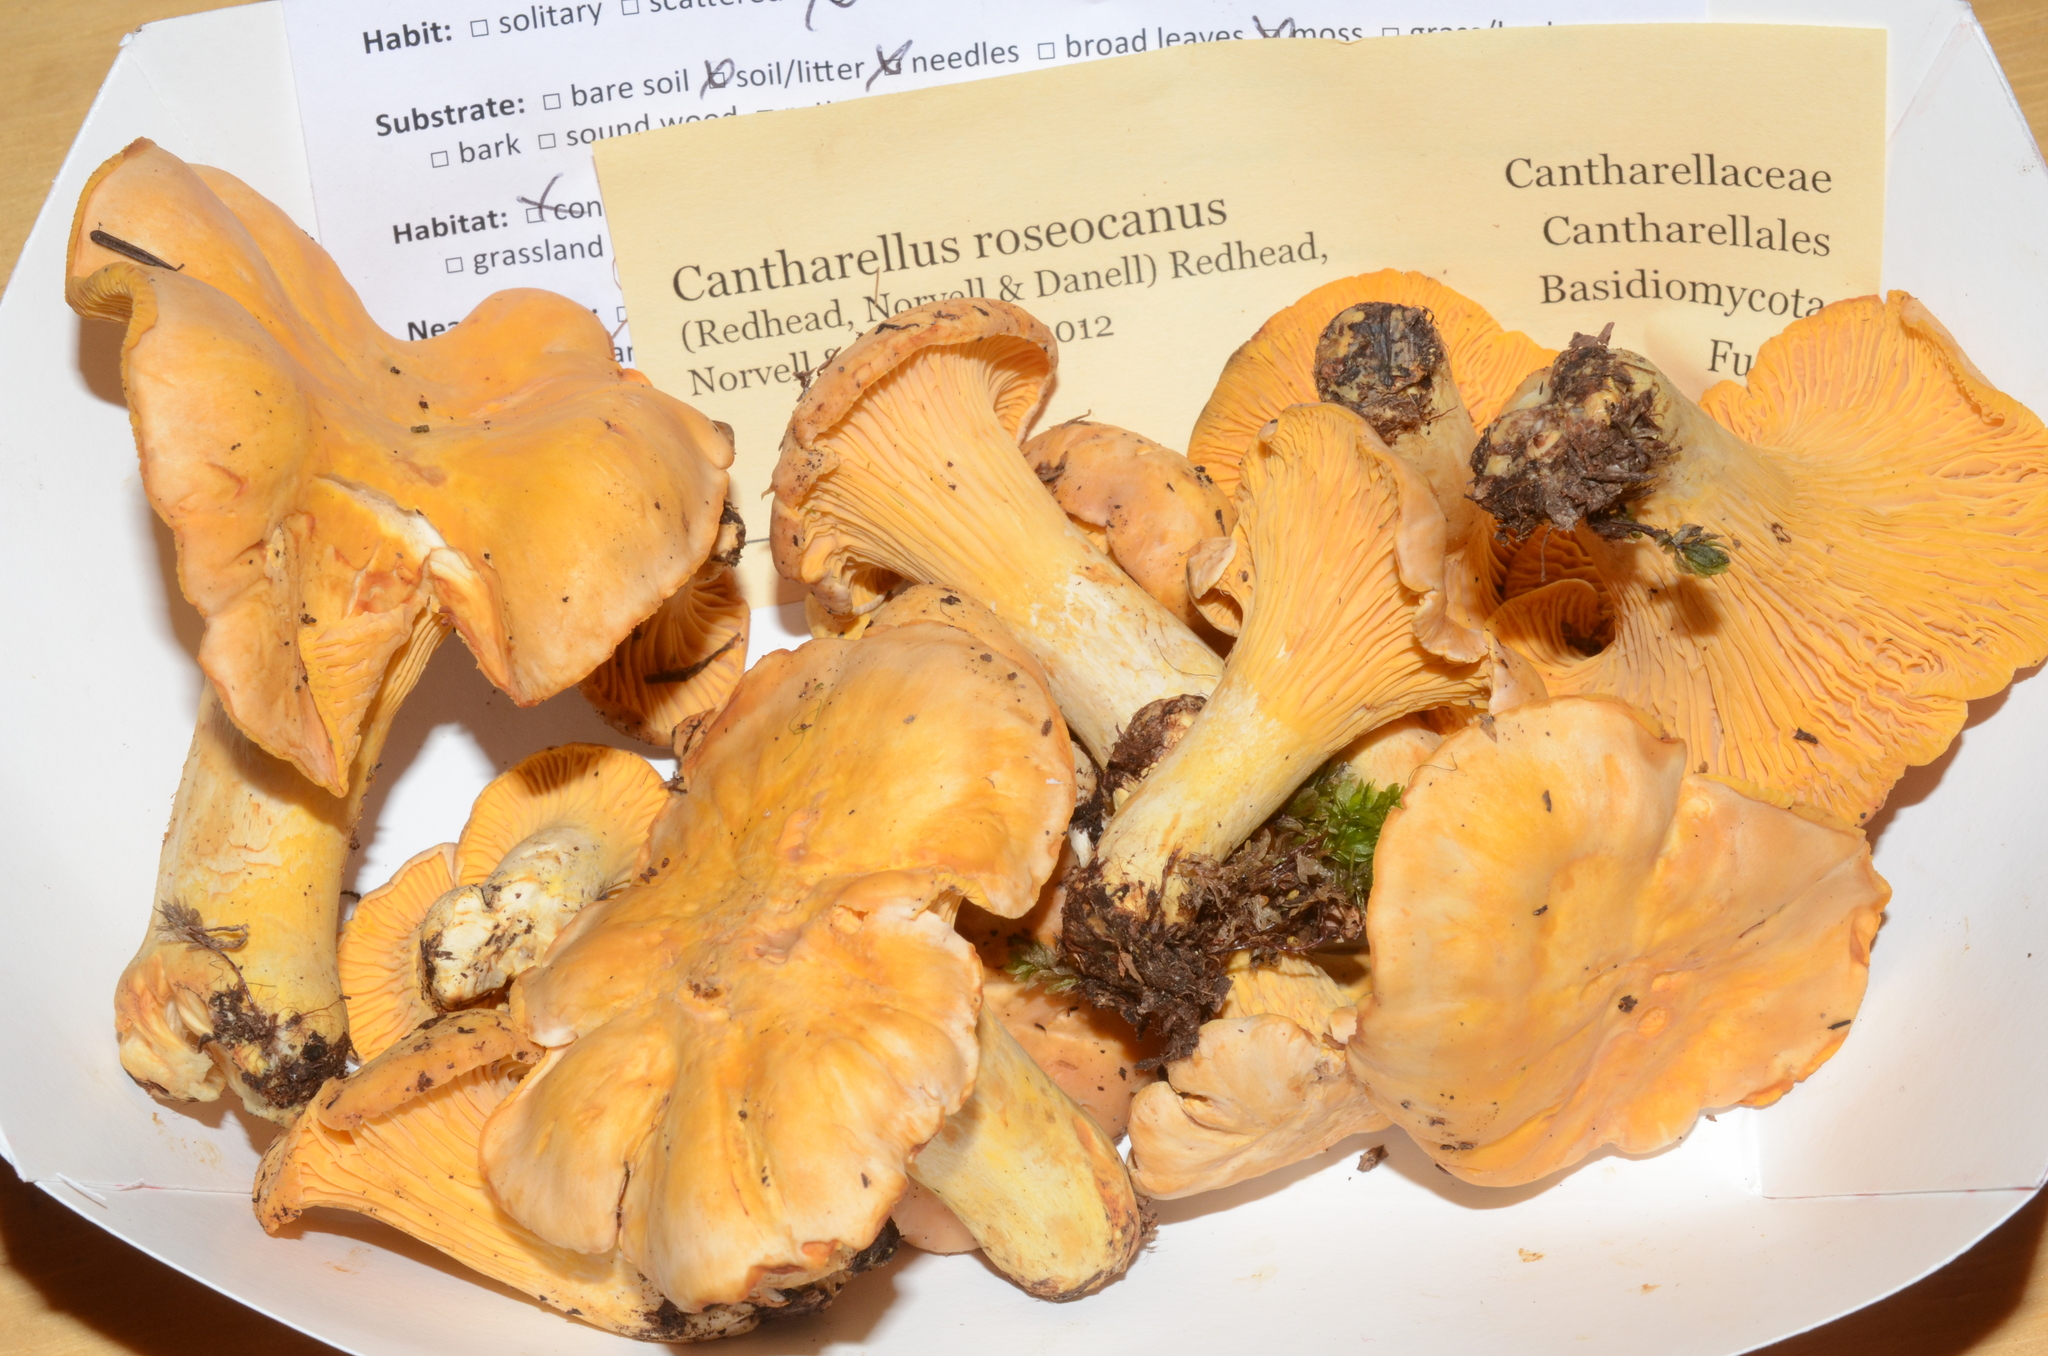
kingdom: Fungi
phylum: Basidiomycota
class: Agaricomycetes
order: Cantharellales
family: Hydnaceae
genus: Cantharellus
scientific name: Cantharellus roseocanus
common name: Rainbow chanterelle
